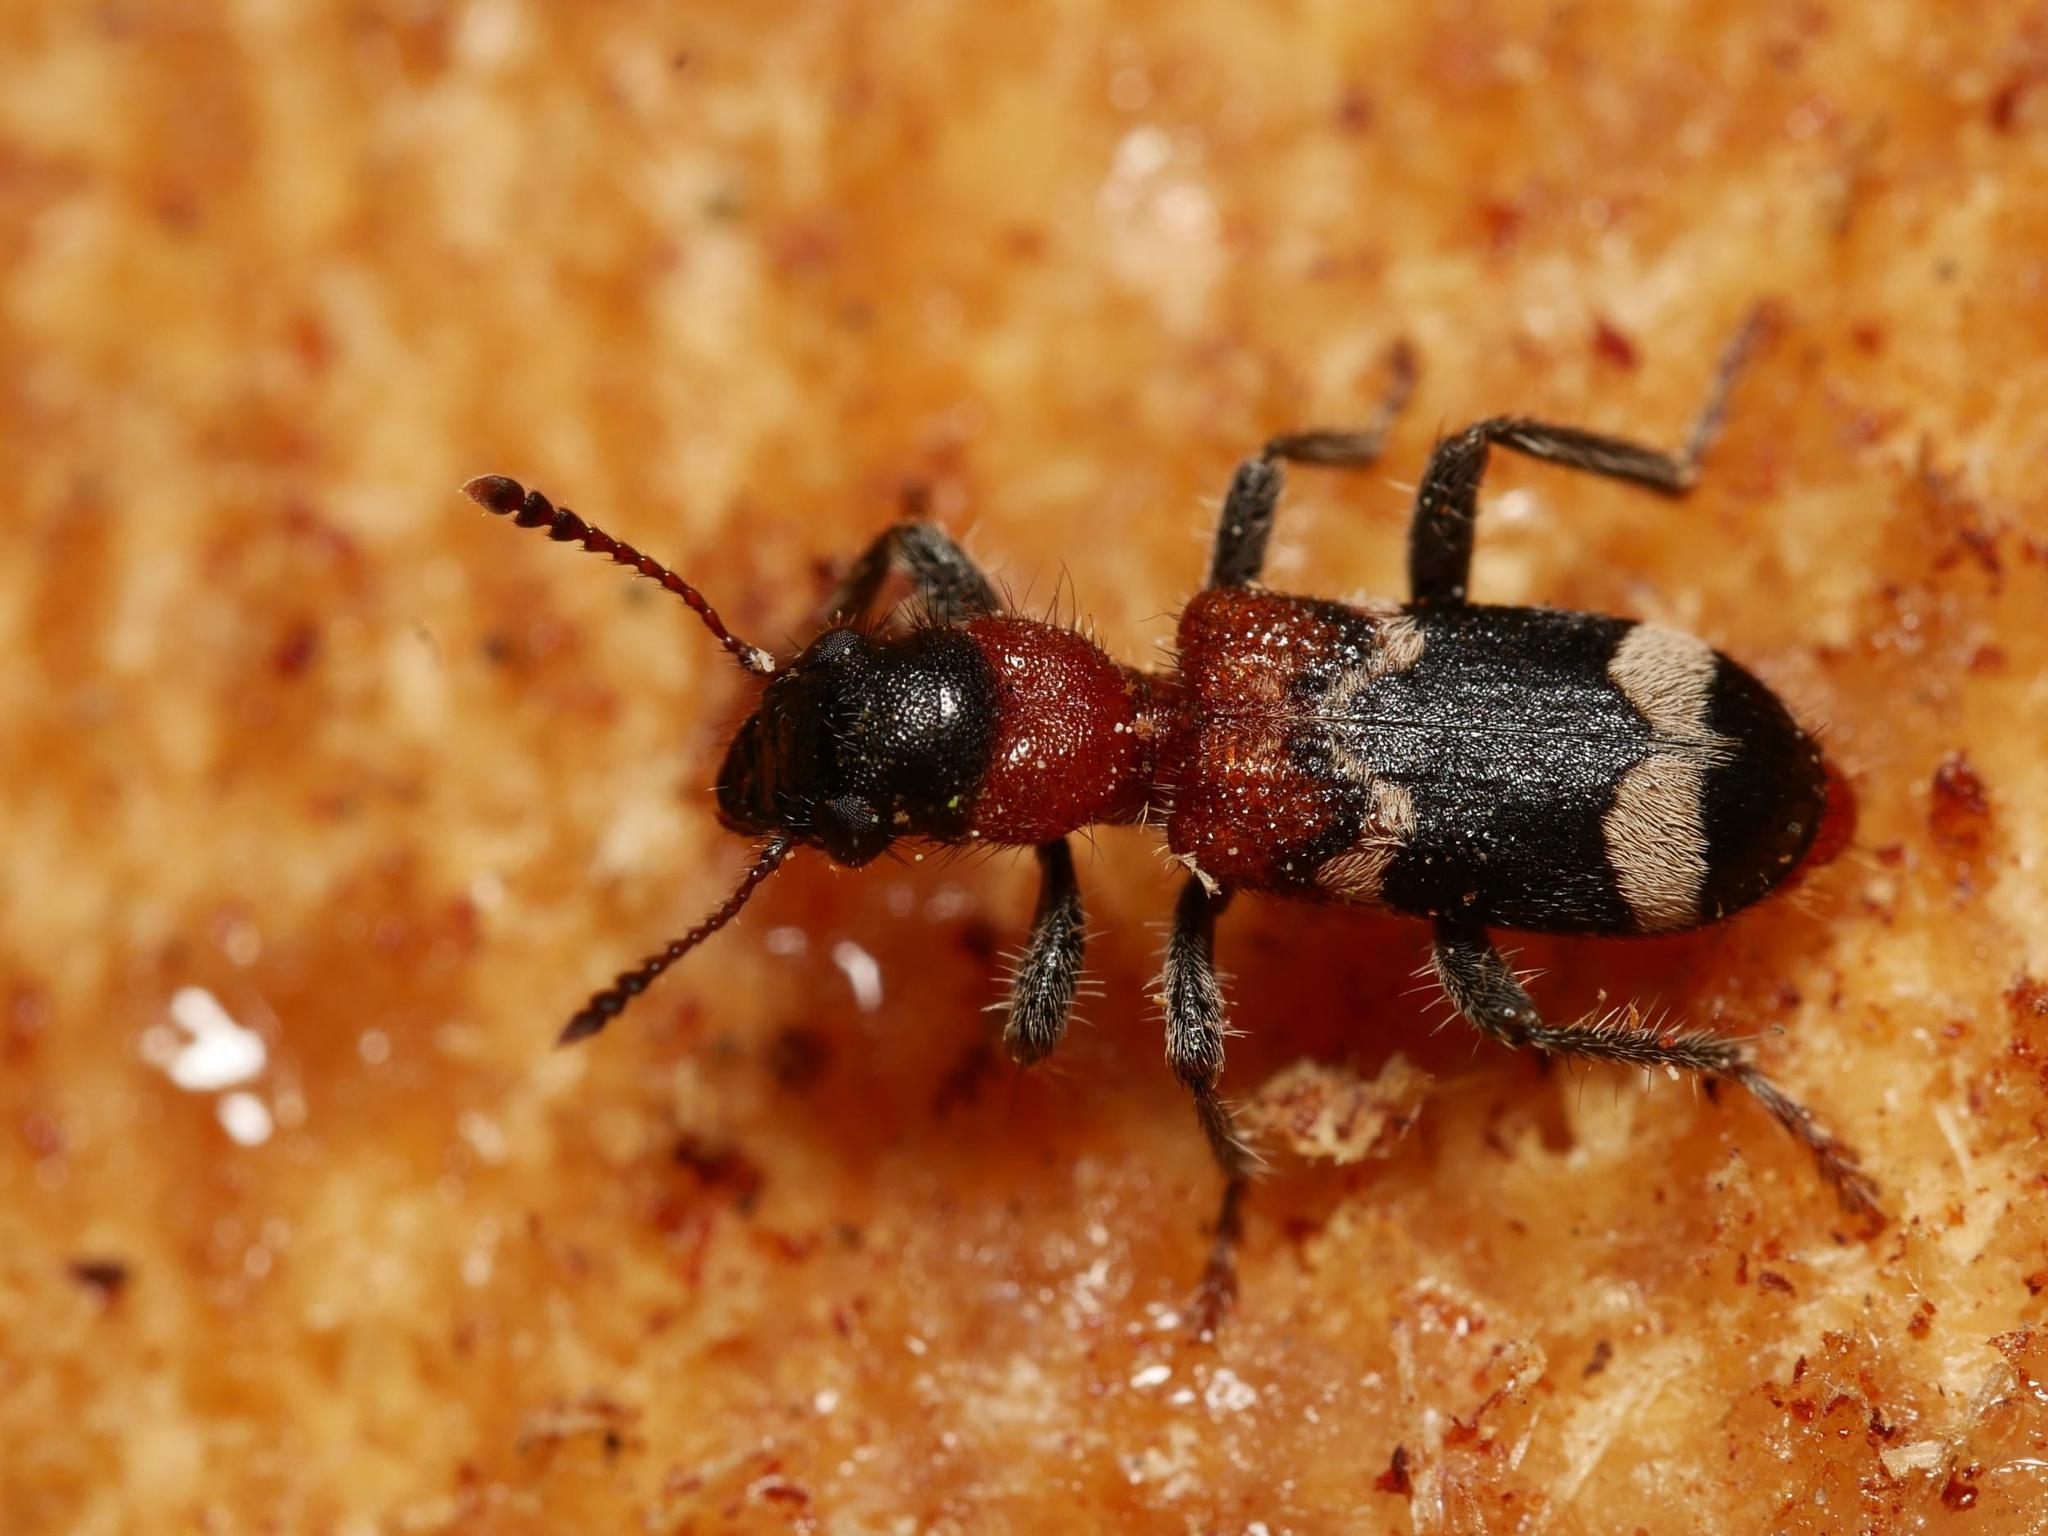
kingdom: Animalia
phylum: Arthropoda
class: Insecta
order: Coleoptera
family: Cleridae
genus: Thanasimus
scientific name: Thanasimus formicarius
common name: Ant beetle
